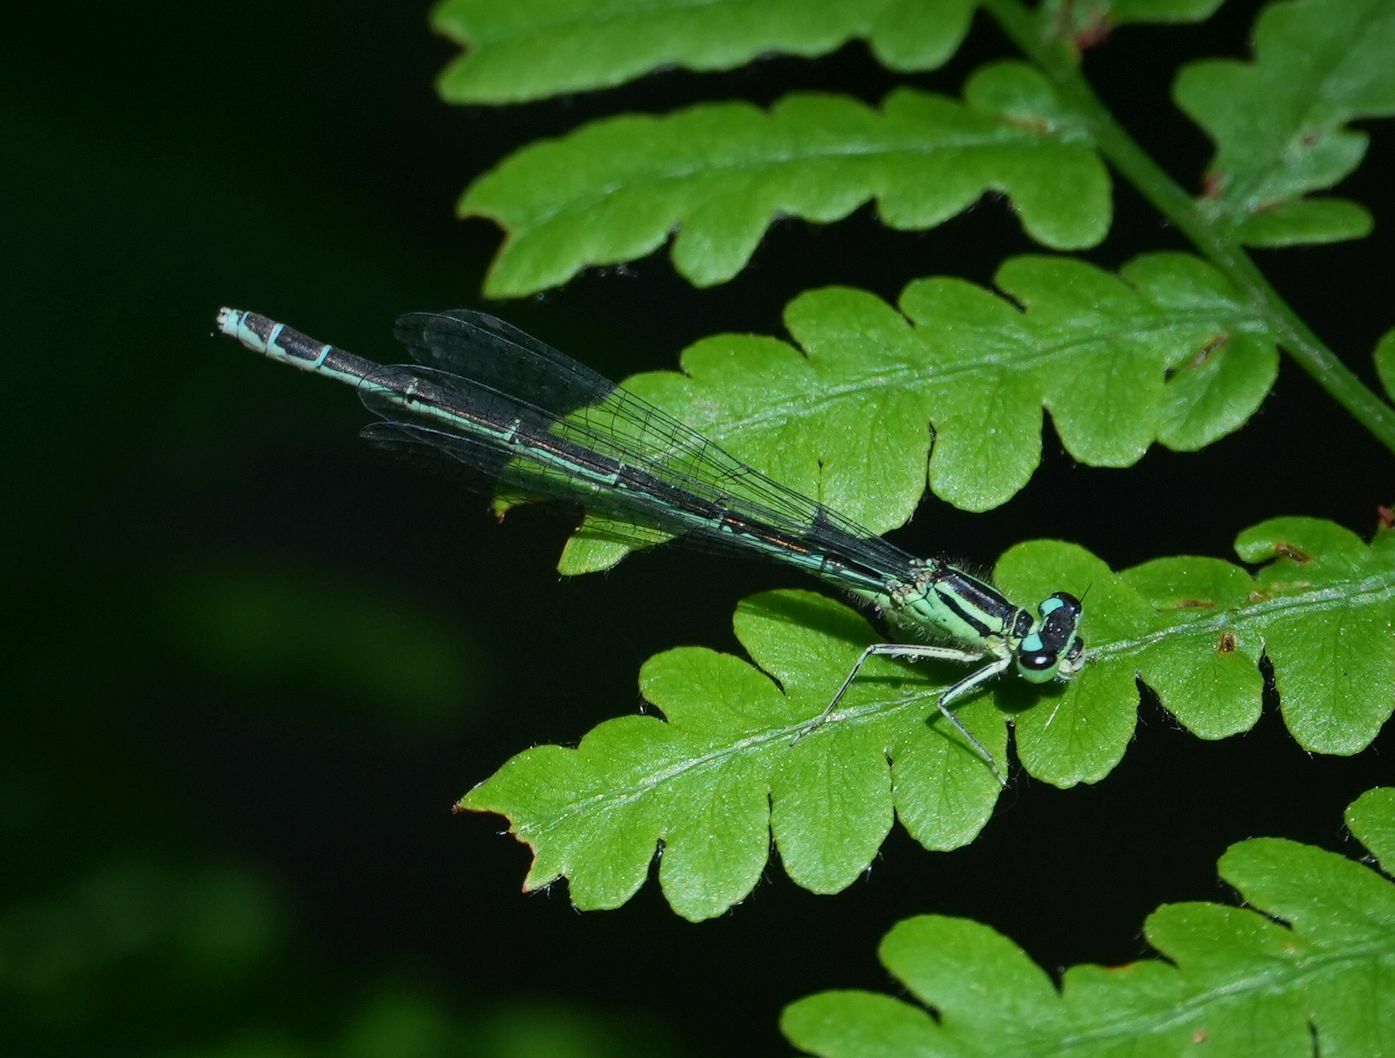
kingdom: Animalia
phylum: Arthropoda
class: Insecta
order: Odonata
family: Coenagrionidae
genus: Coenagrion
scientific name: Coenagrion resolutum
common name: Taiga bluet
